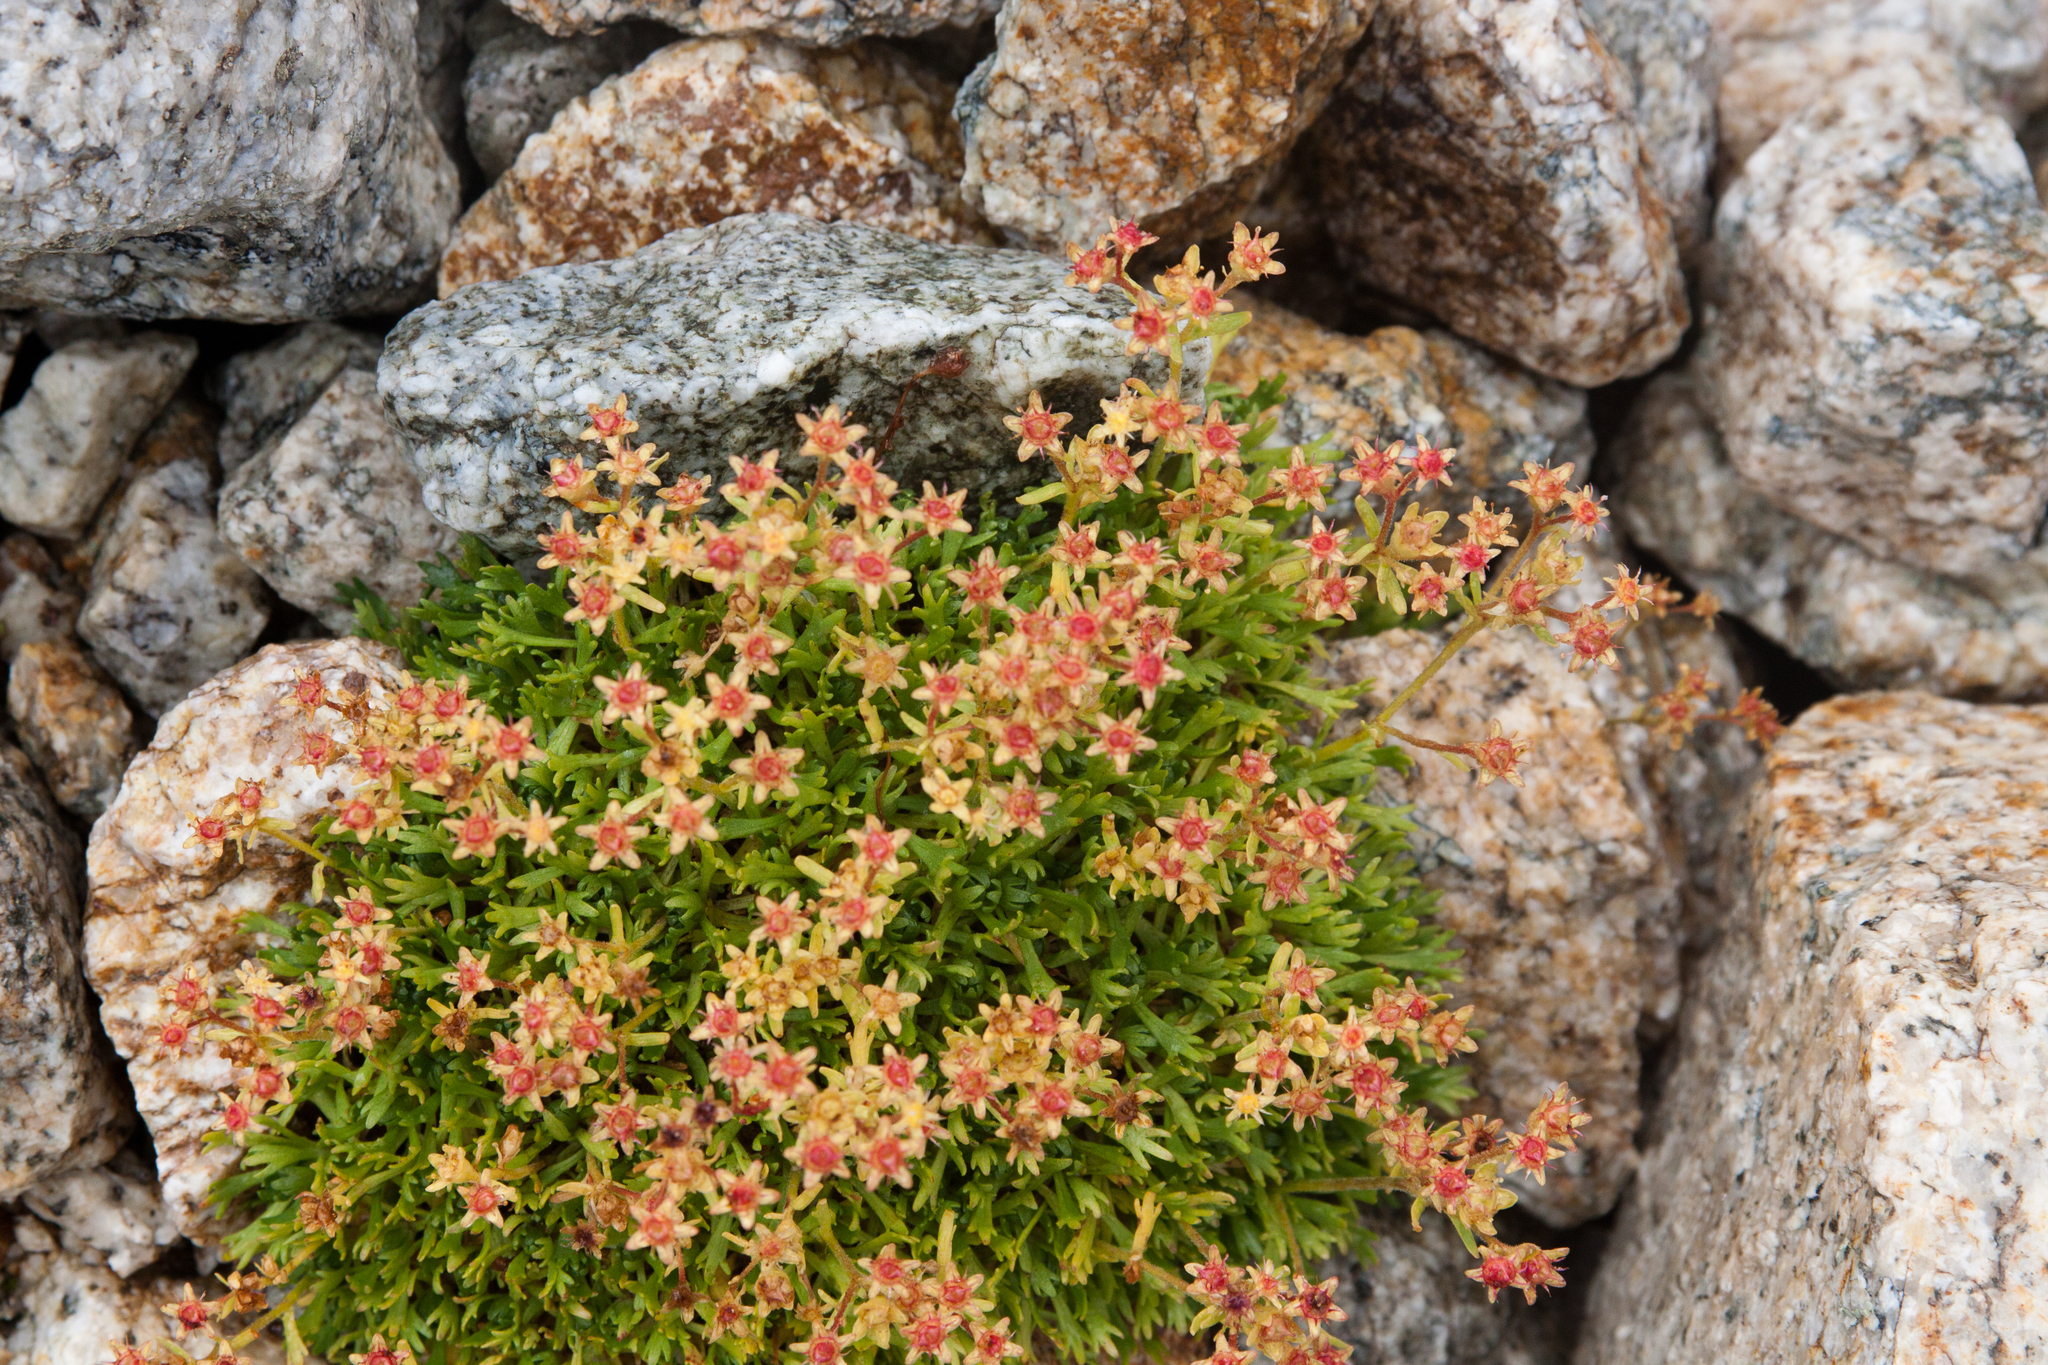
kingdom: Plantae
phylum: Tracheophyta
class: Magnoliopsida
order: Saxifragales
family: Saxifragaceae
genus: Saxifraga
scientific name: Saxifraga exarata
